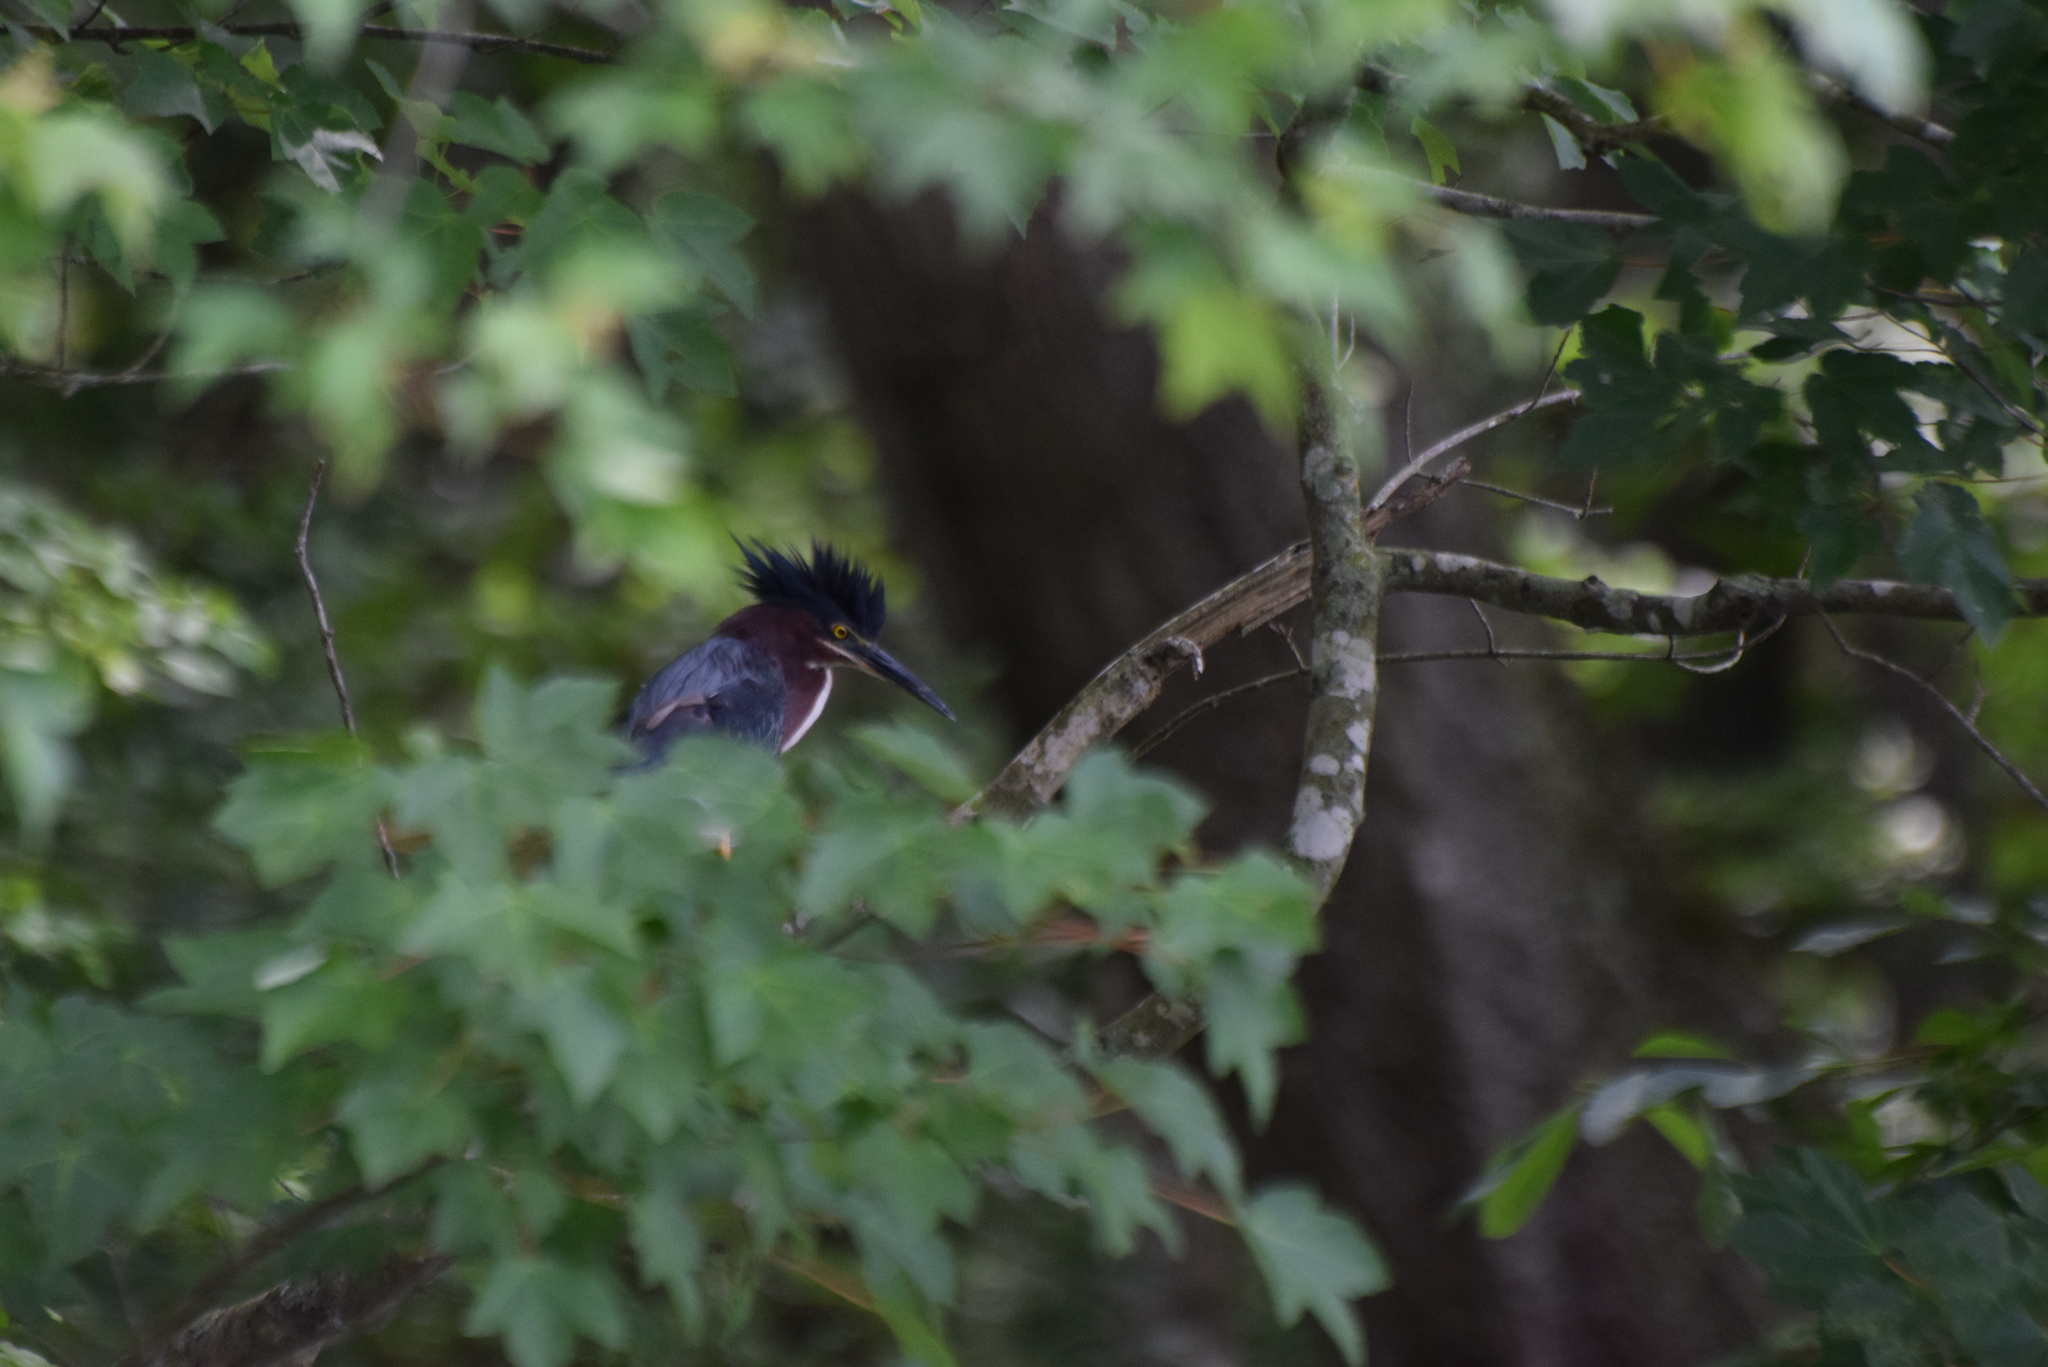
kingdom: Animalia
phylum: Chordata
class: Aves
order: Pelecaniformes
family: Ardeidae
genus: Butorides
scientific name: Butorides virescens
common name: Green heron
